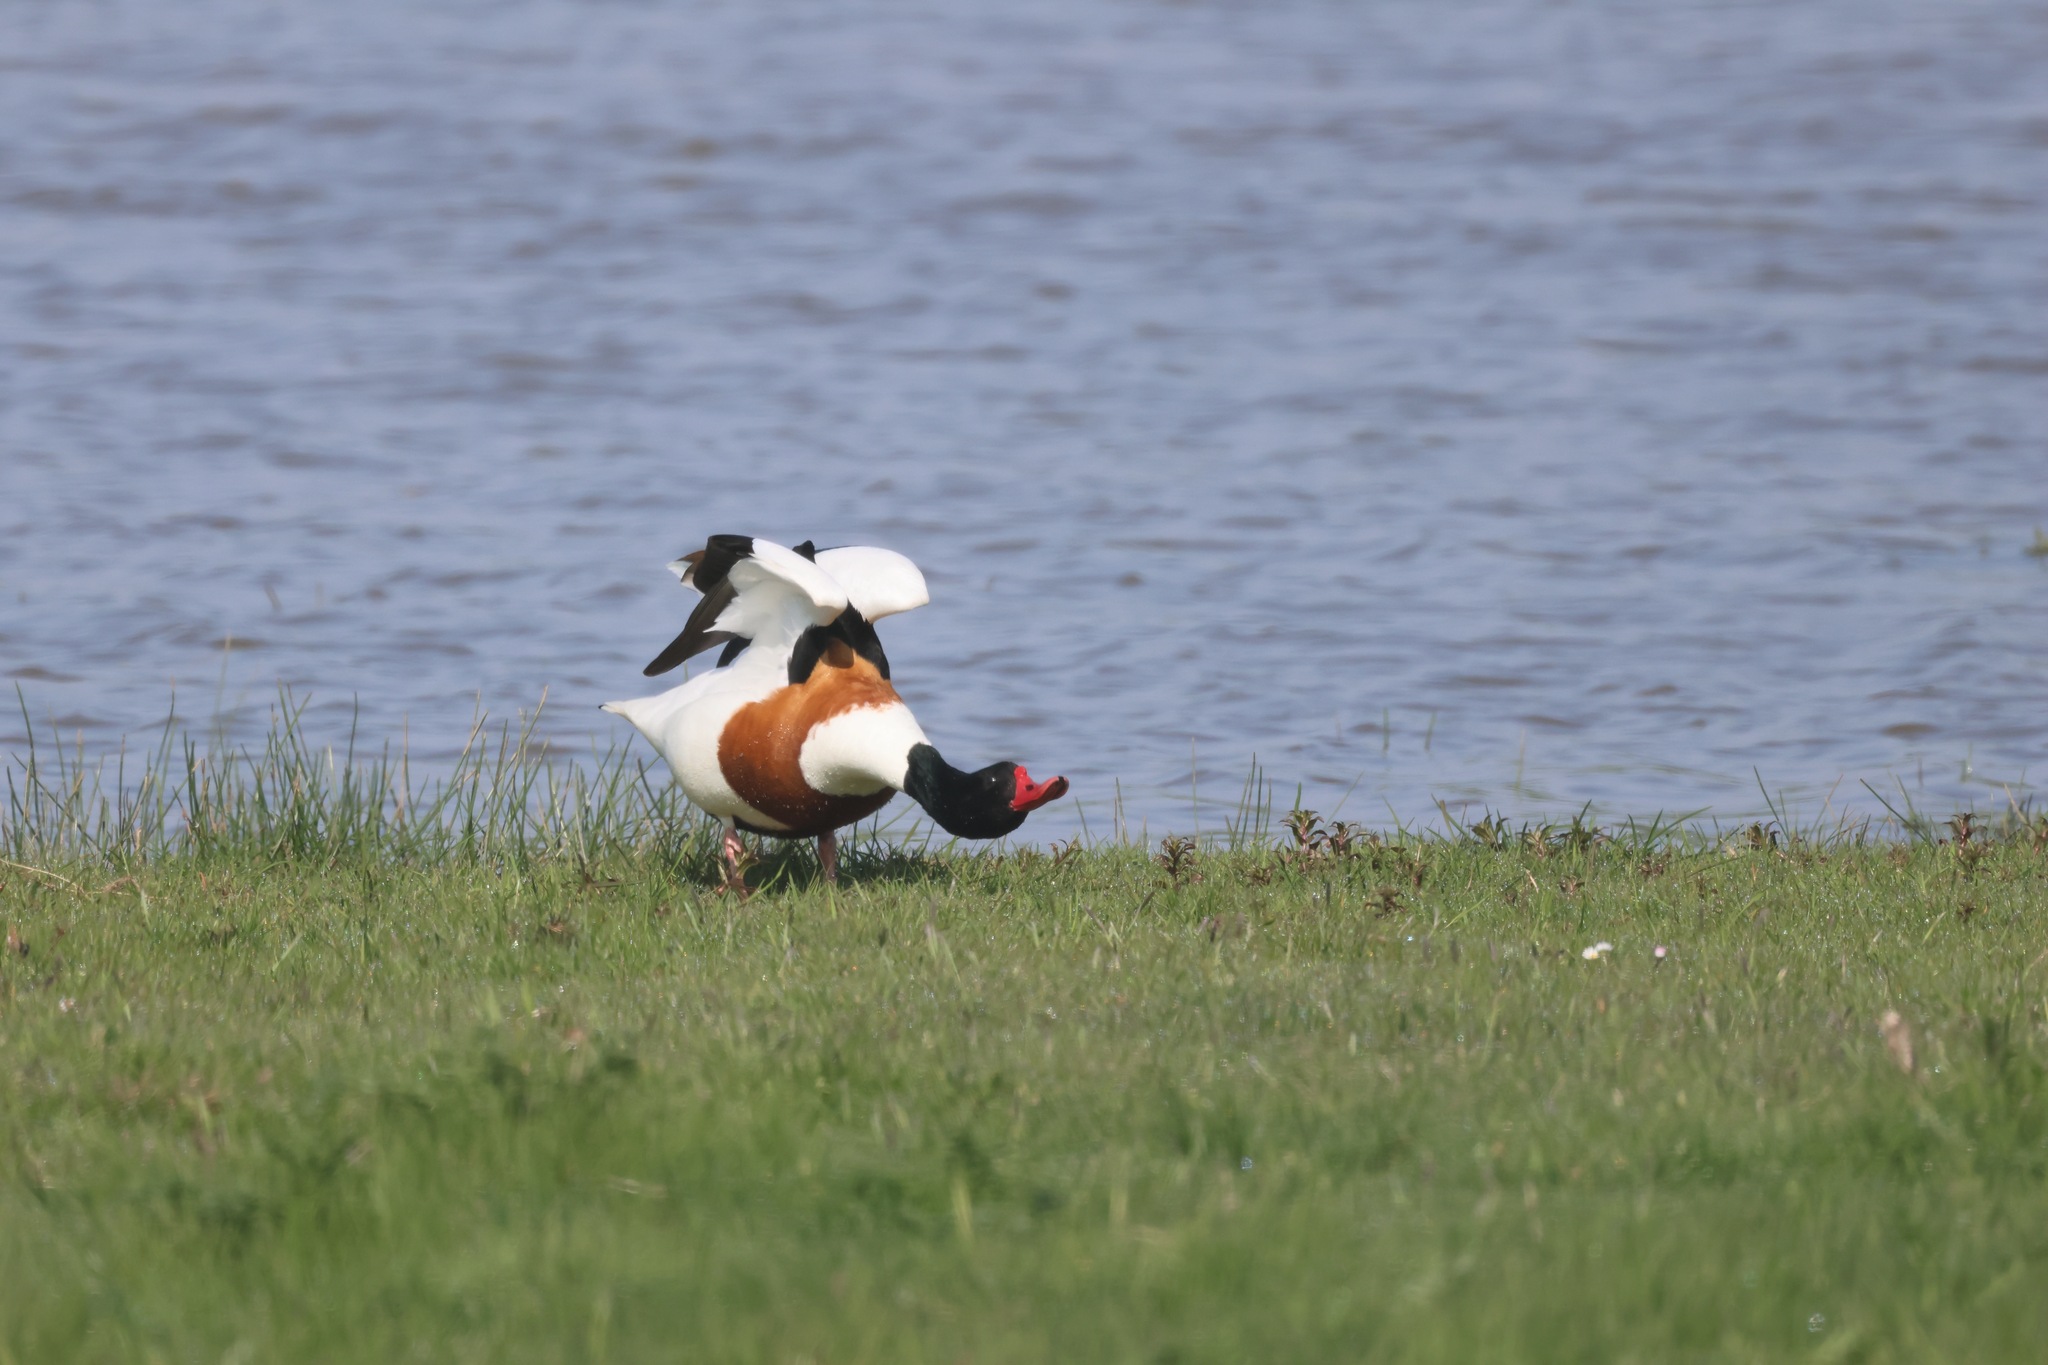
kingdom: Animalia
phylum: Chordata
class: Aves
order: Anseriformes
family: Anatidae
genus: Tadorna
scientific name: Tadorna tadorna
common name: Common shelduck
